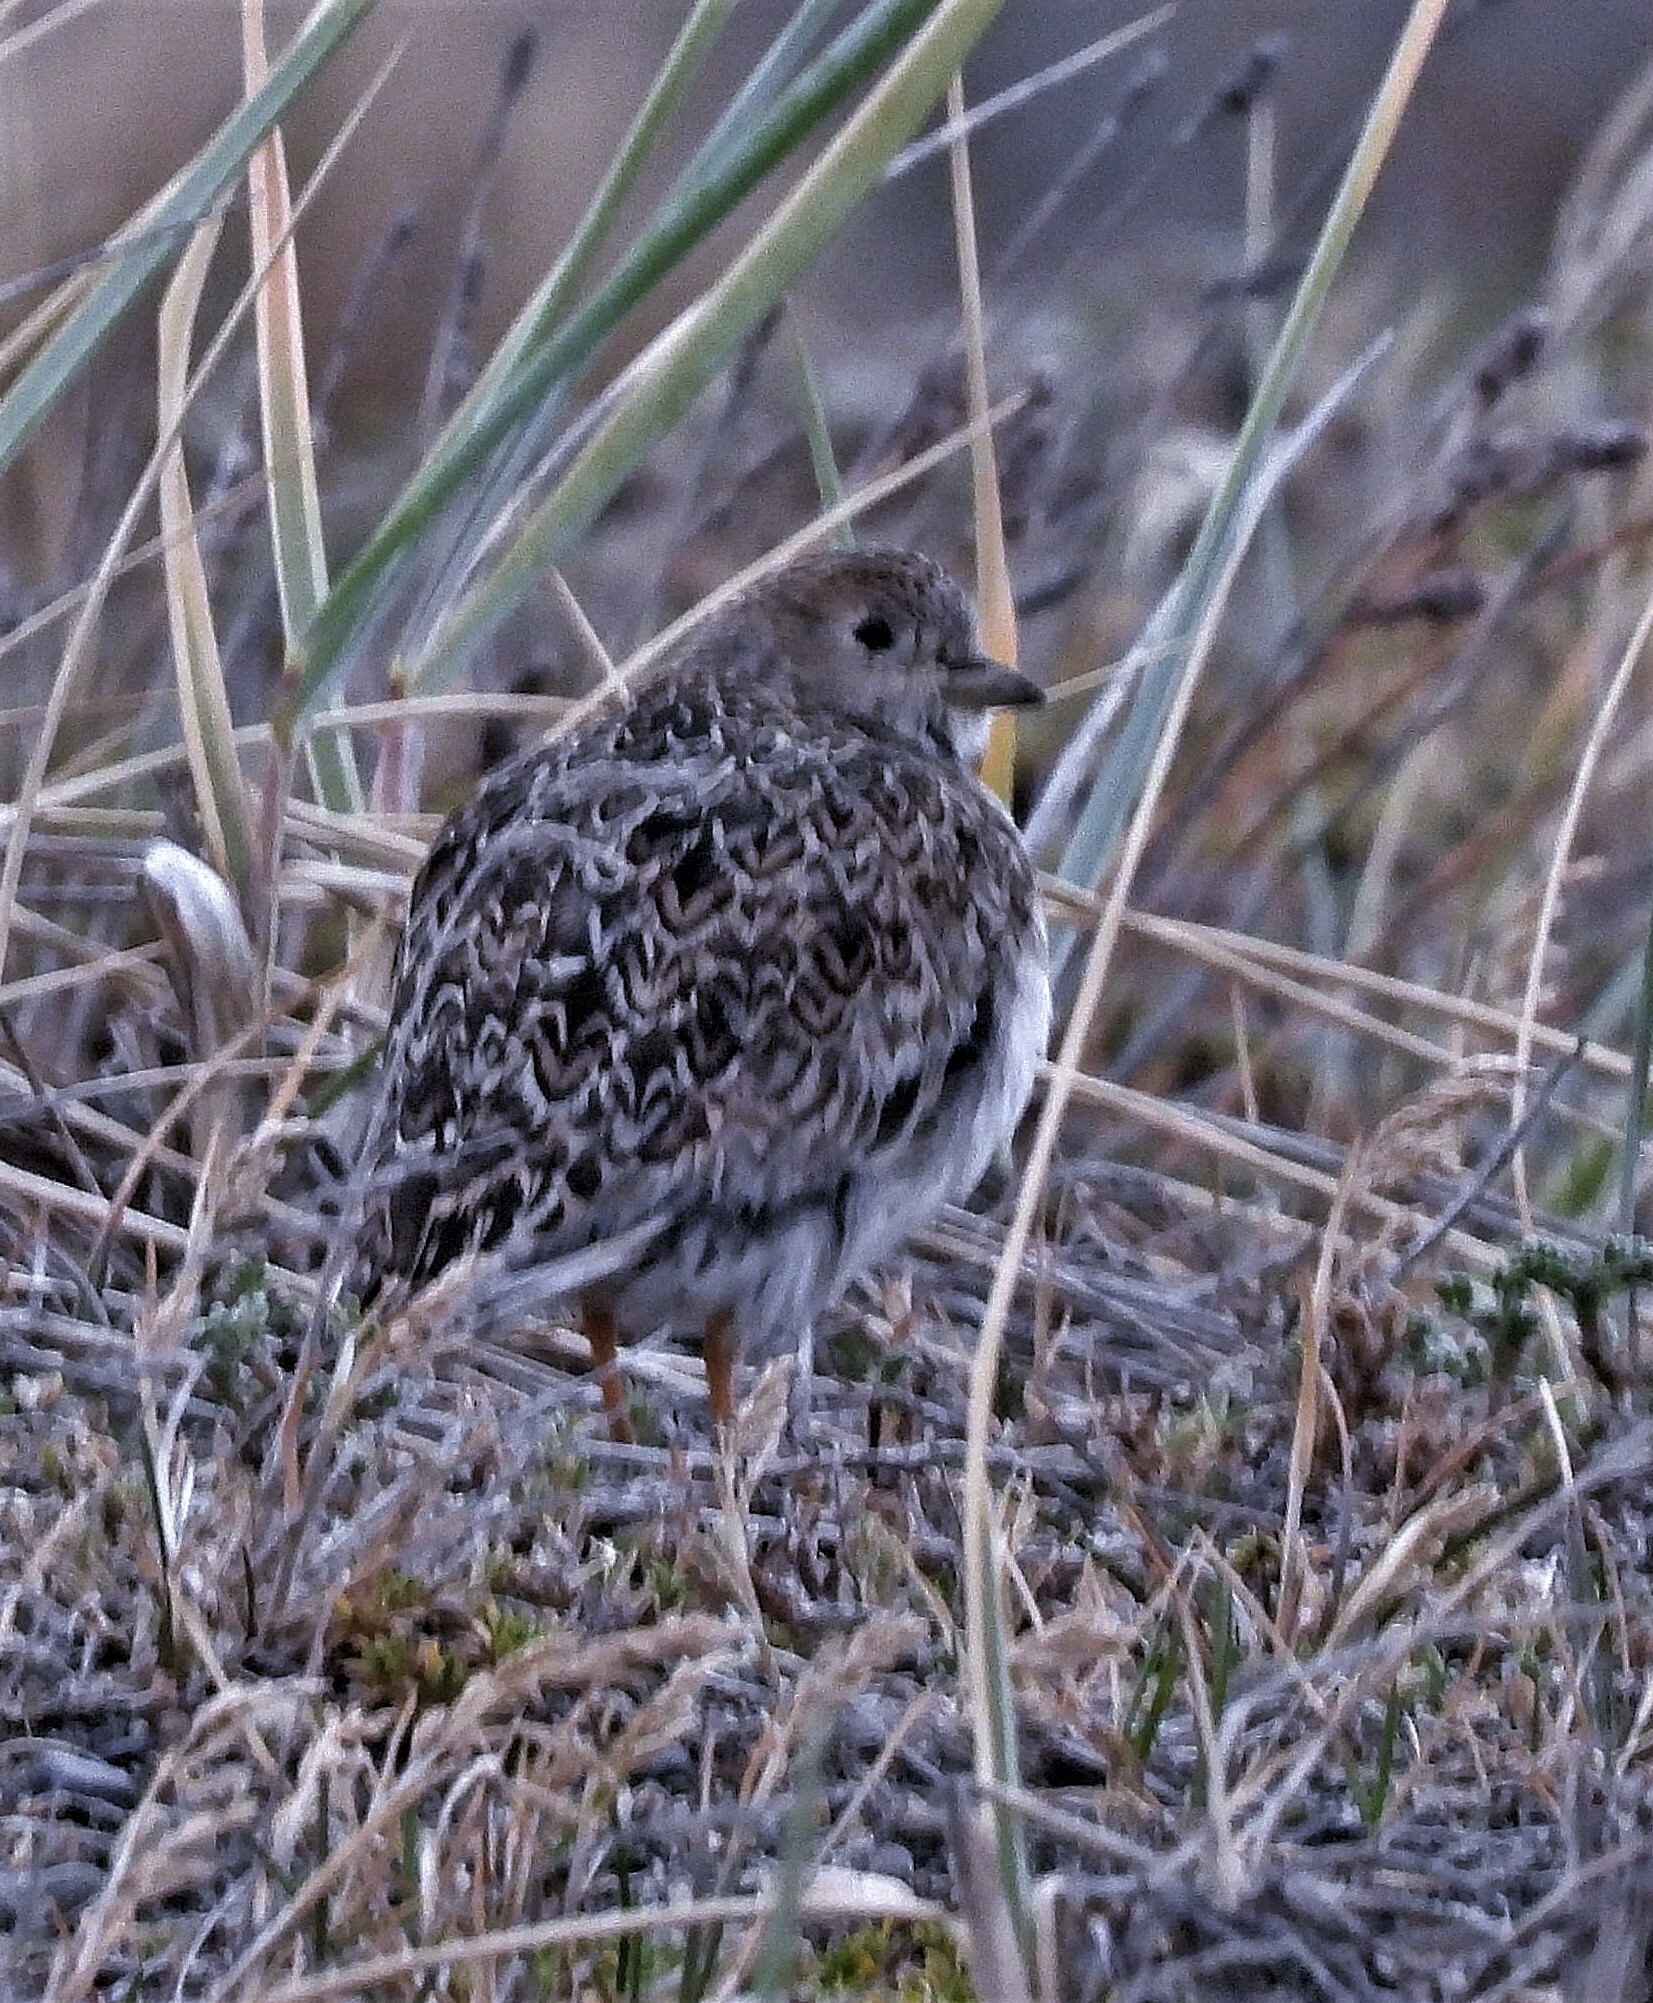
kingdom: Animalia
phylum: Chordata
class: Aves
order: Charadriiformes
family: Thinocoridae
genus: Thinocorus
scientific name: Thinocorus rumicivorus
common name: Least seedsnipe
